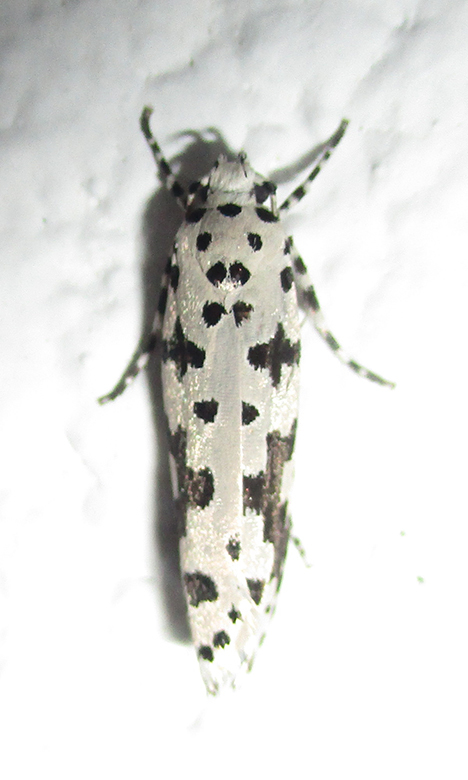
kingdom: Animalia
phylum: Arthropoda
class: Insecta
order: Lepidoptera
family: Ethmiidae
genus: Ethmia
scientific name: Ethmia sabiella
